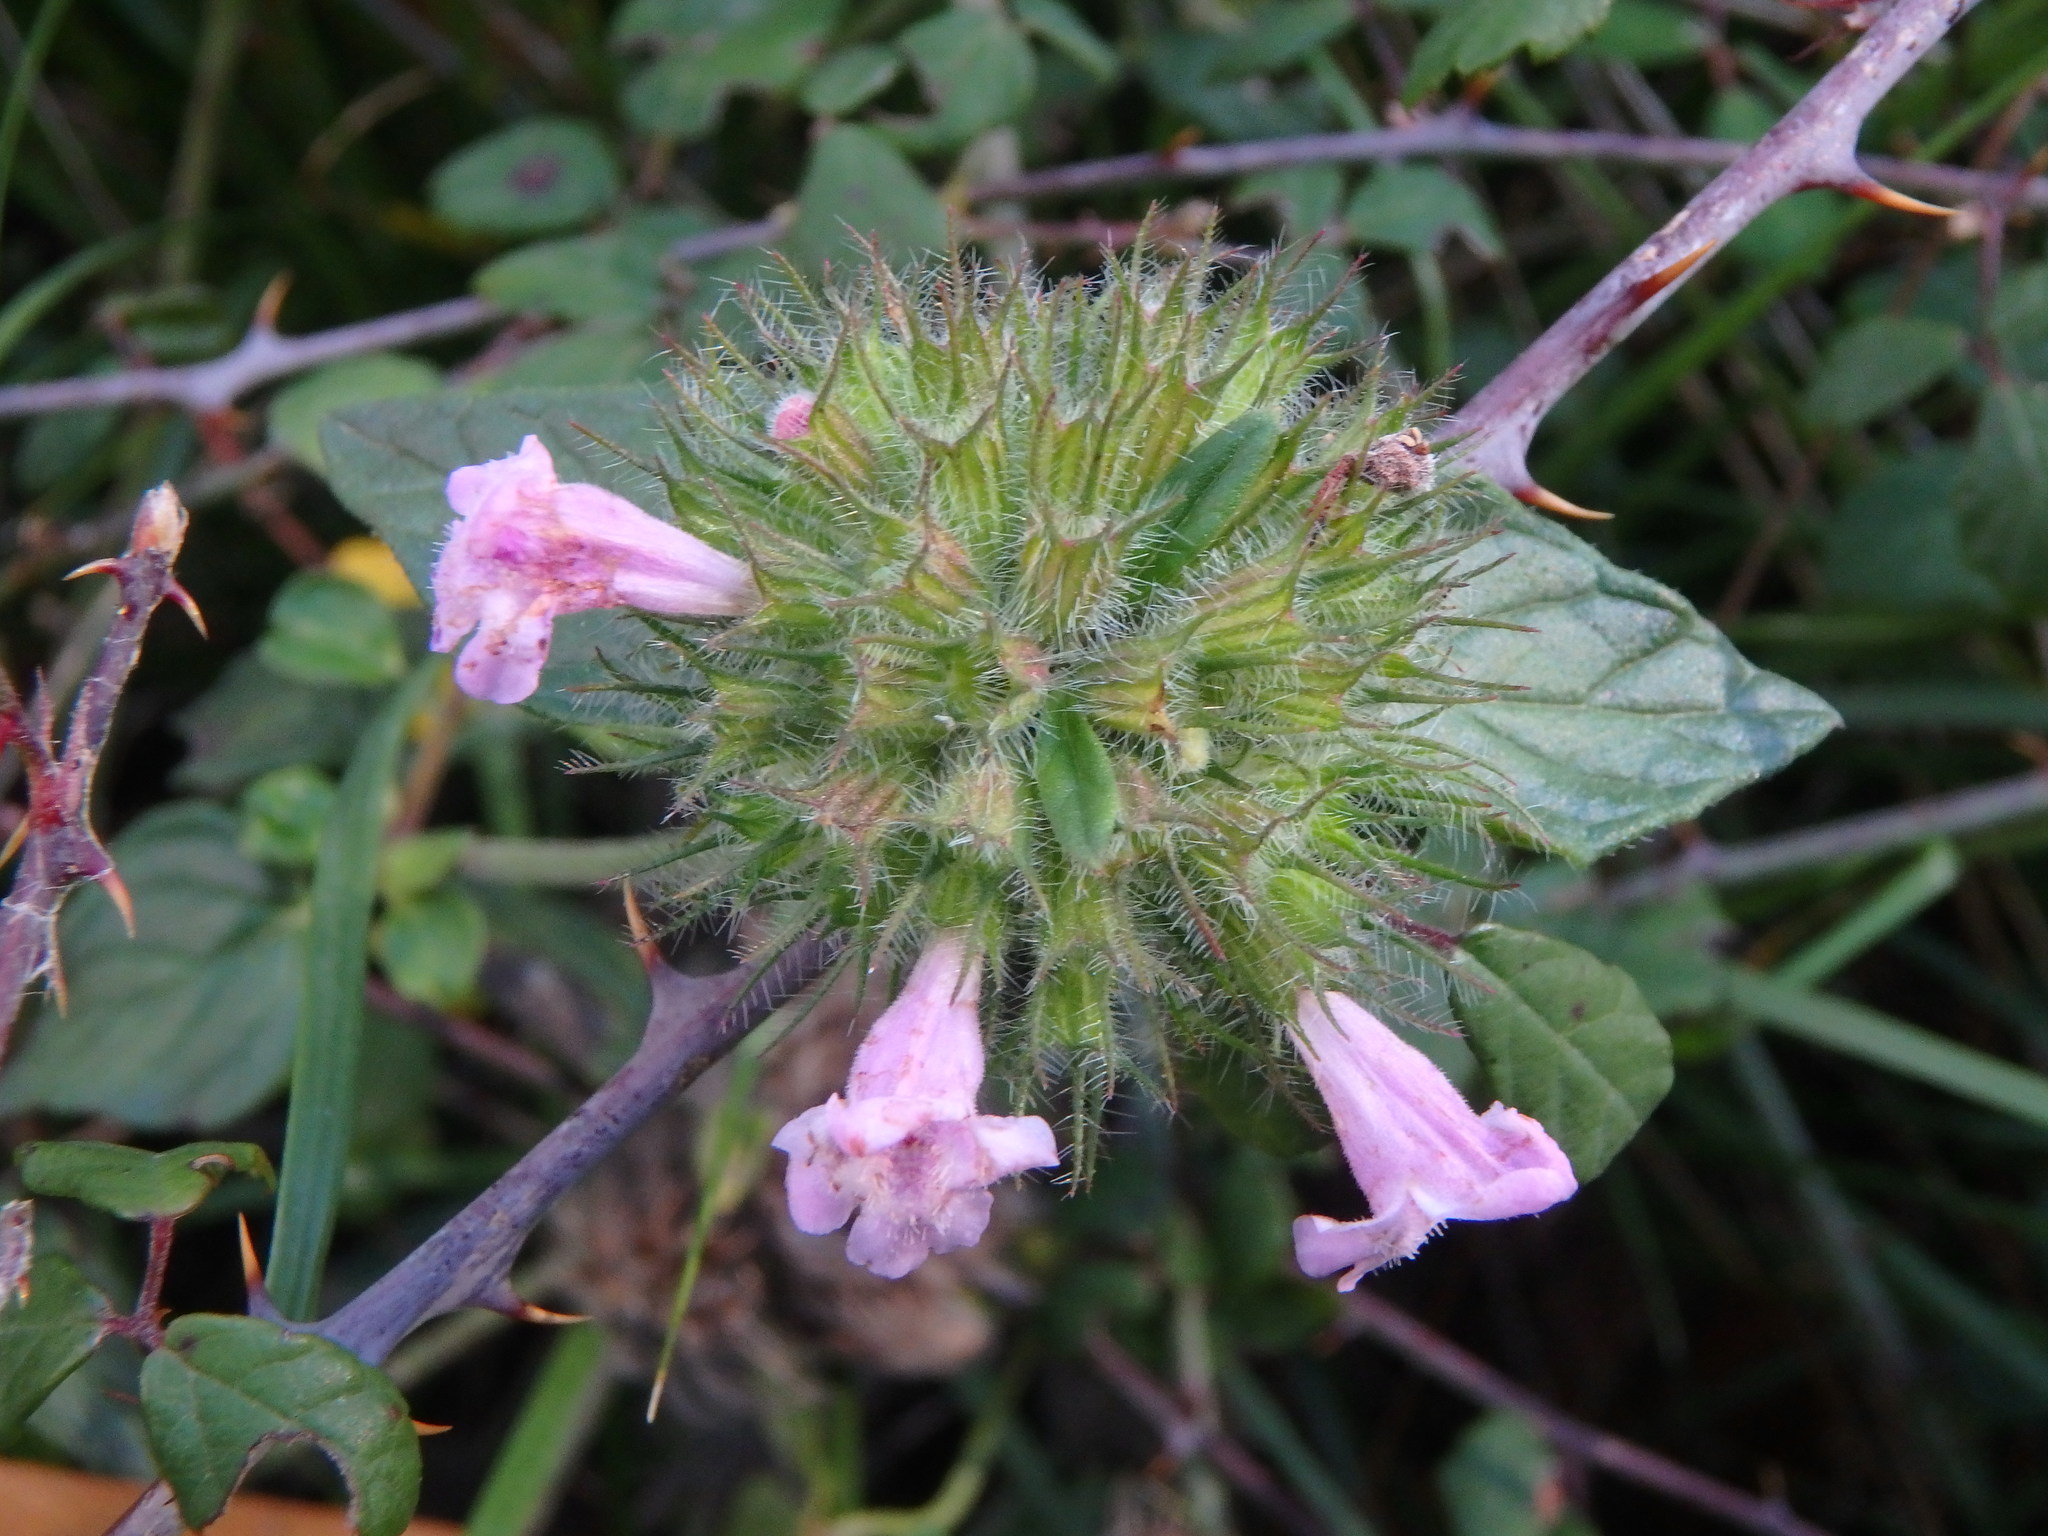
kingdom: Plantae
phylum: Tracheophyta
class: Magnoliopsida
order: Lamiales
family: Lamiaceae
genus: Clinopodium
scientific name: Clinopodium vulgare
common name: Wild basil
